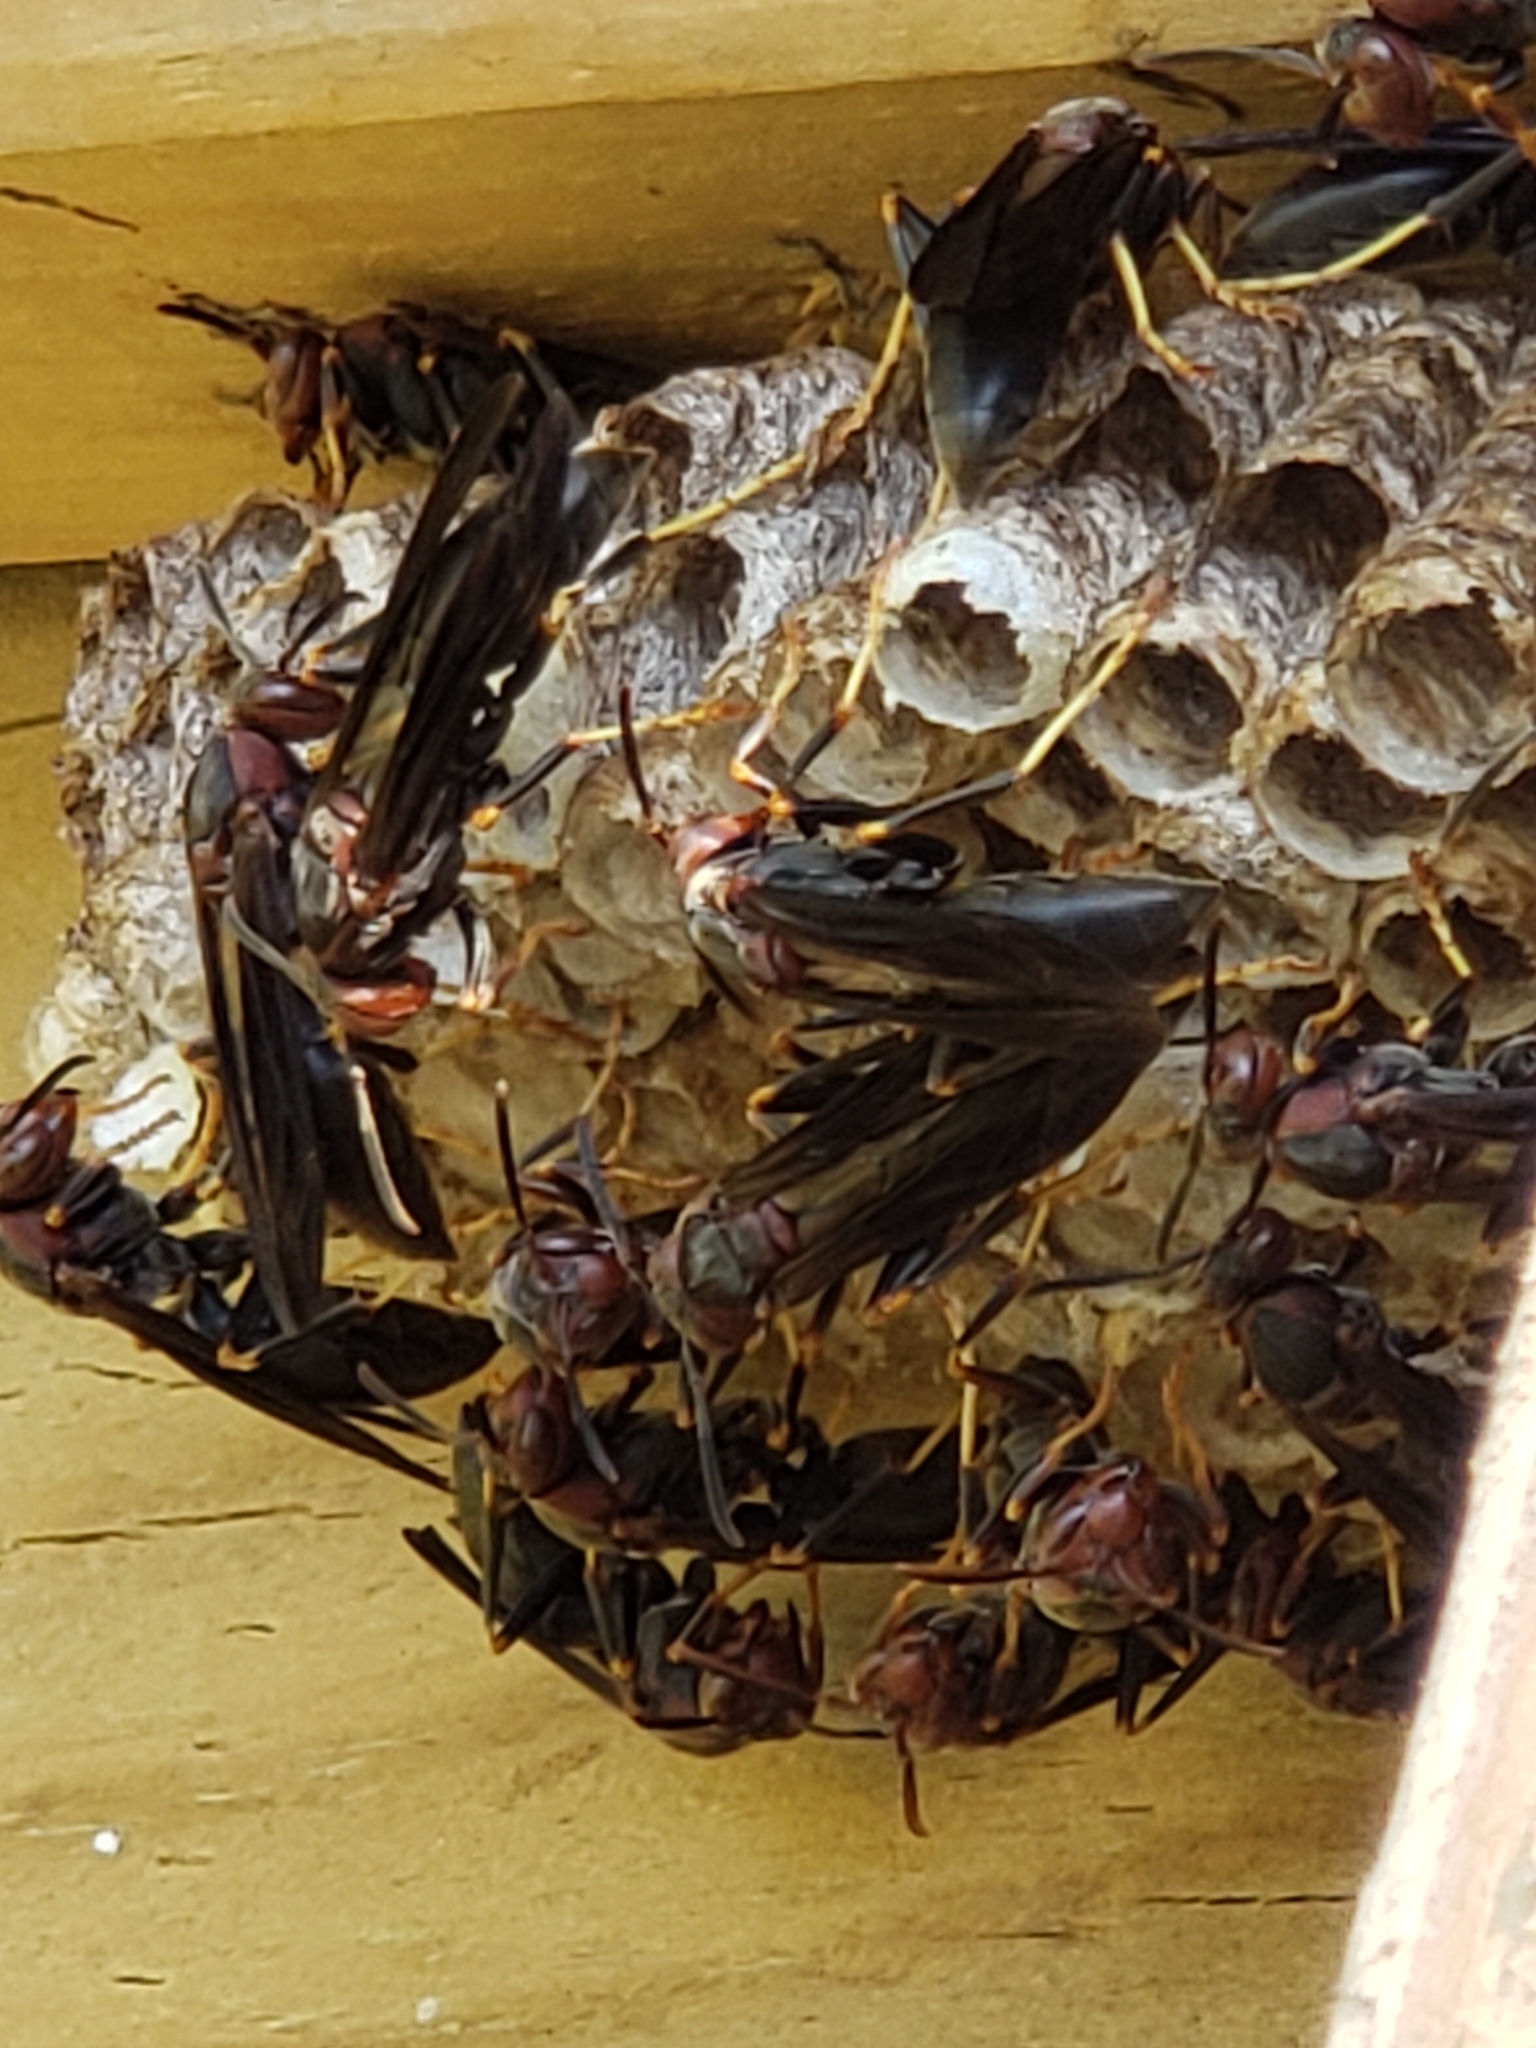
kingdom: Animalia
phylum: Arthropoda
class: Insecta
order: Hymenoptera
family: Eumenidae
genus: Polistes
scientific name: Polistes metricus
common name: Metric paper wasp
